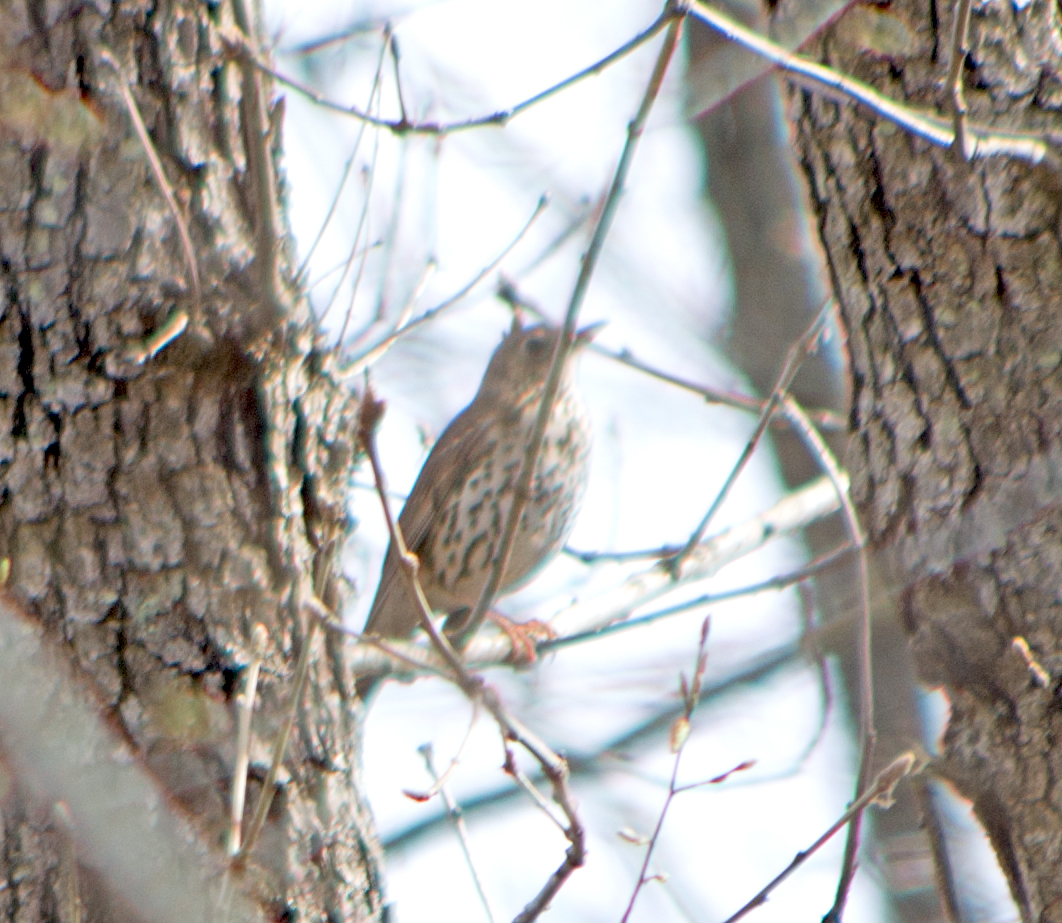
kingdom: Animalia
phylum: Chordata
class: Aves
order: Passeriformes
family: Turdidae
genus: Turdus
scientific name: Turdus philomelos
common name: Song thrush
